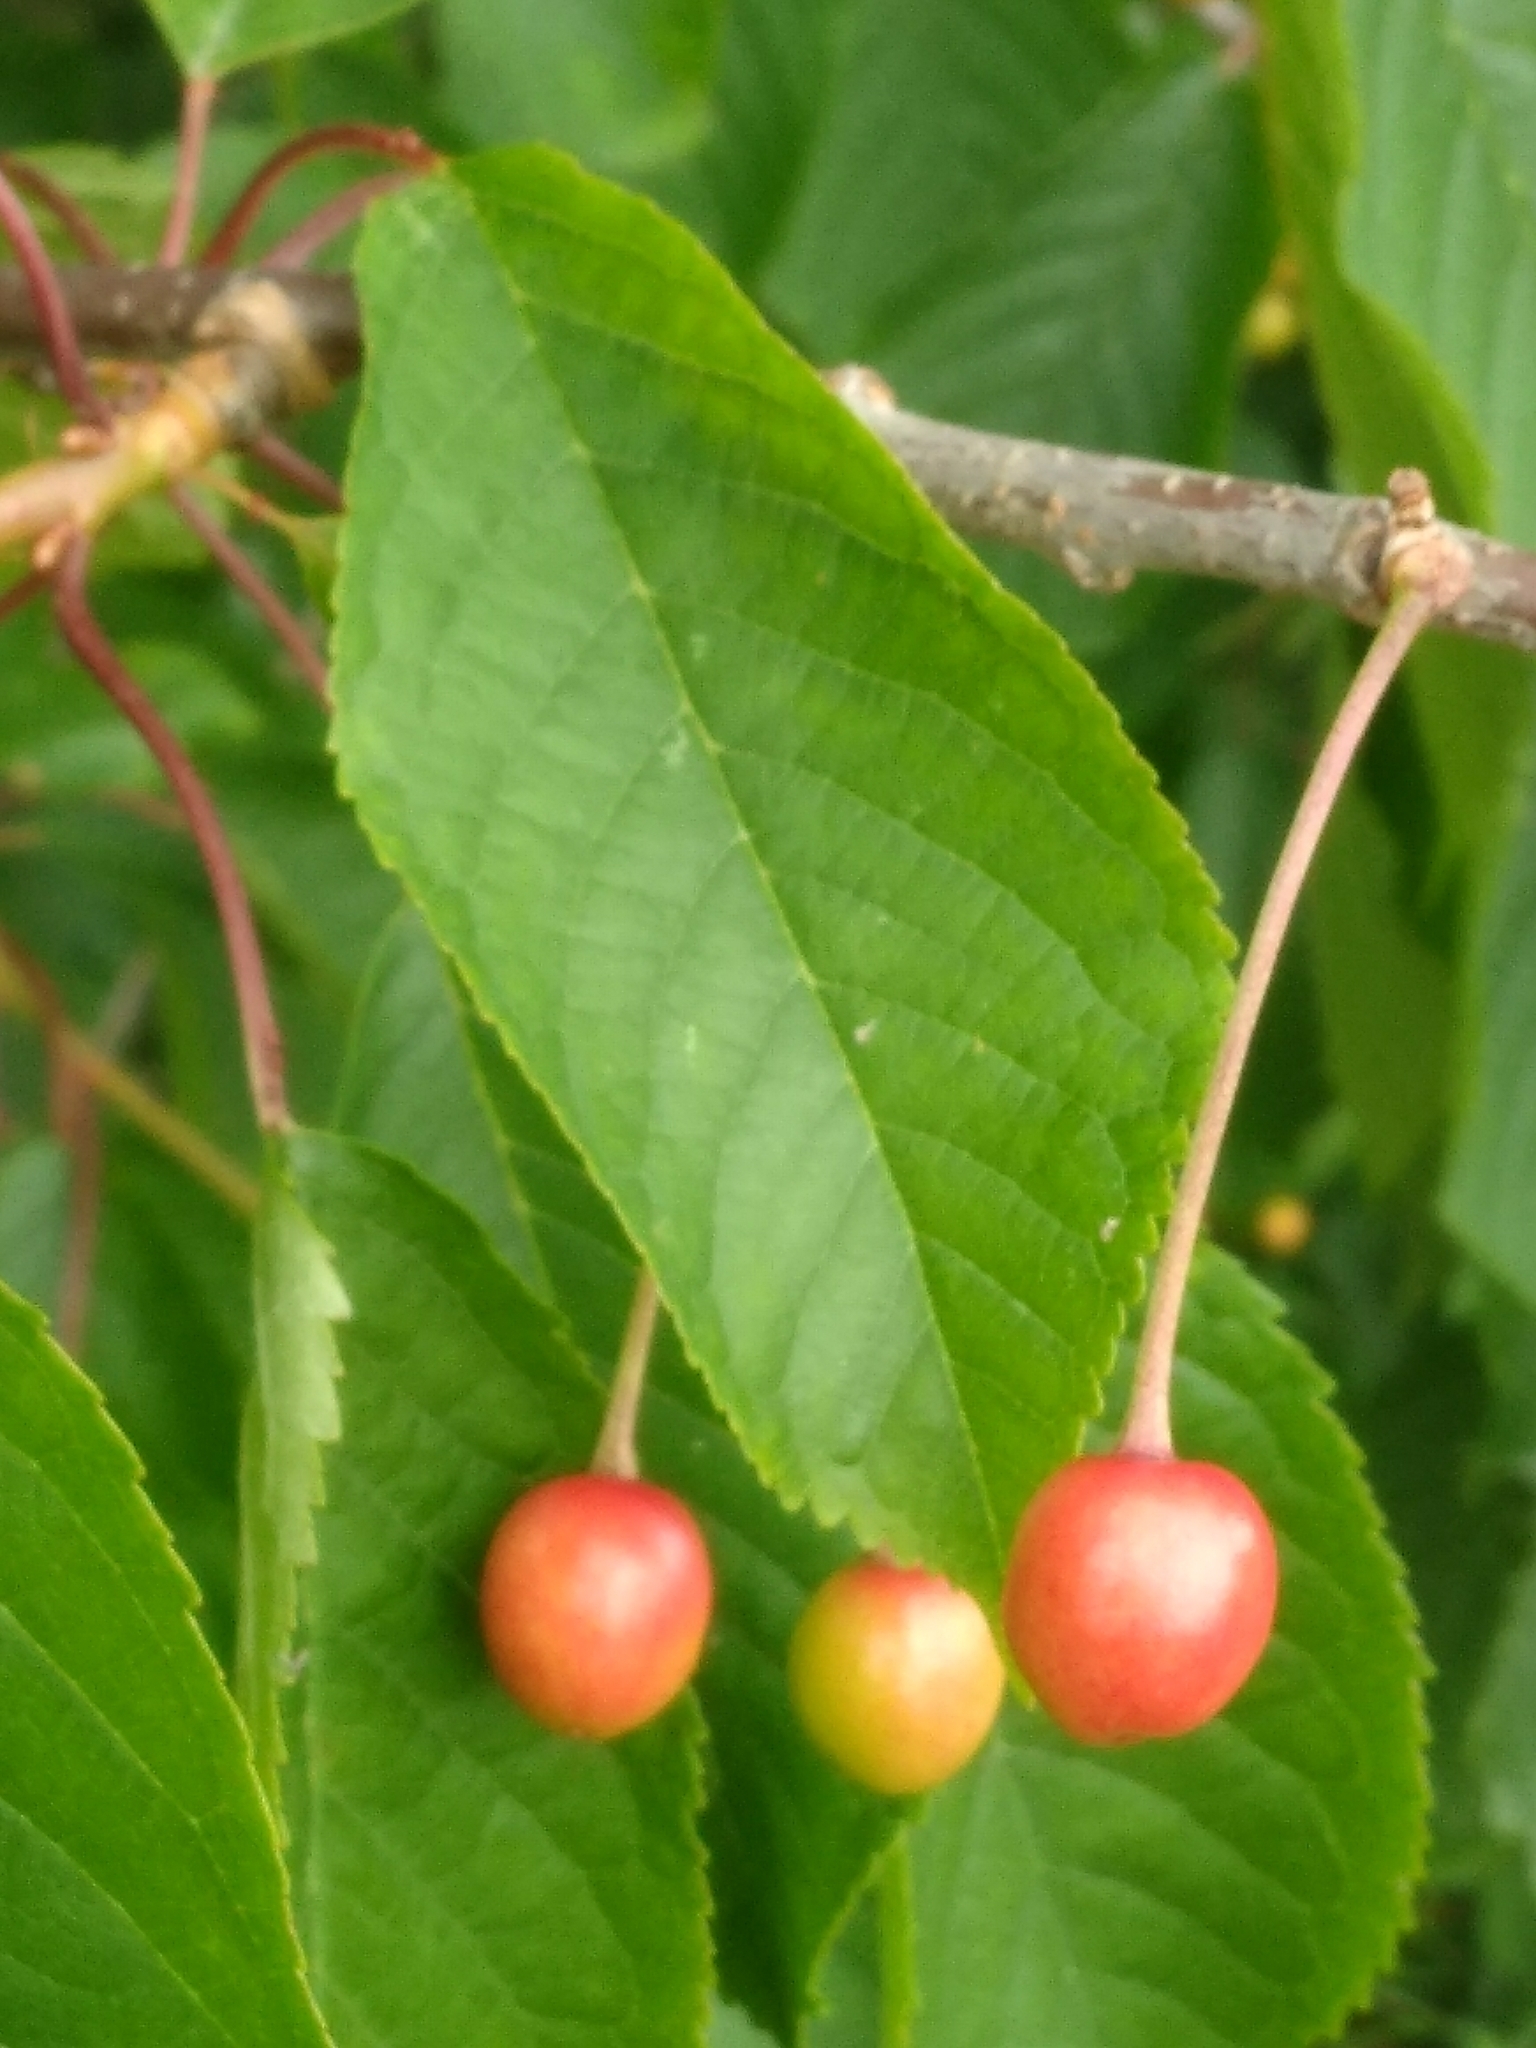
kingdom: Plantae
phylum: Tracheophyta
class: Magnoliopsida
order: Rosales
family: Rosaceae
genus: Prunus
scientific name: Prunus avium
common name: Sweet cherry
